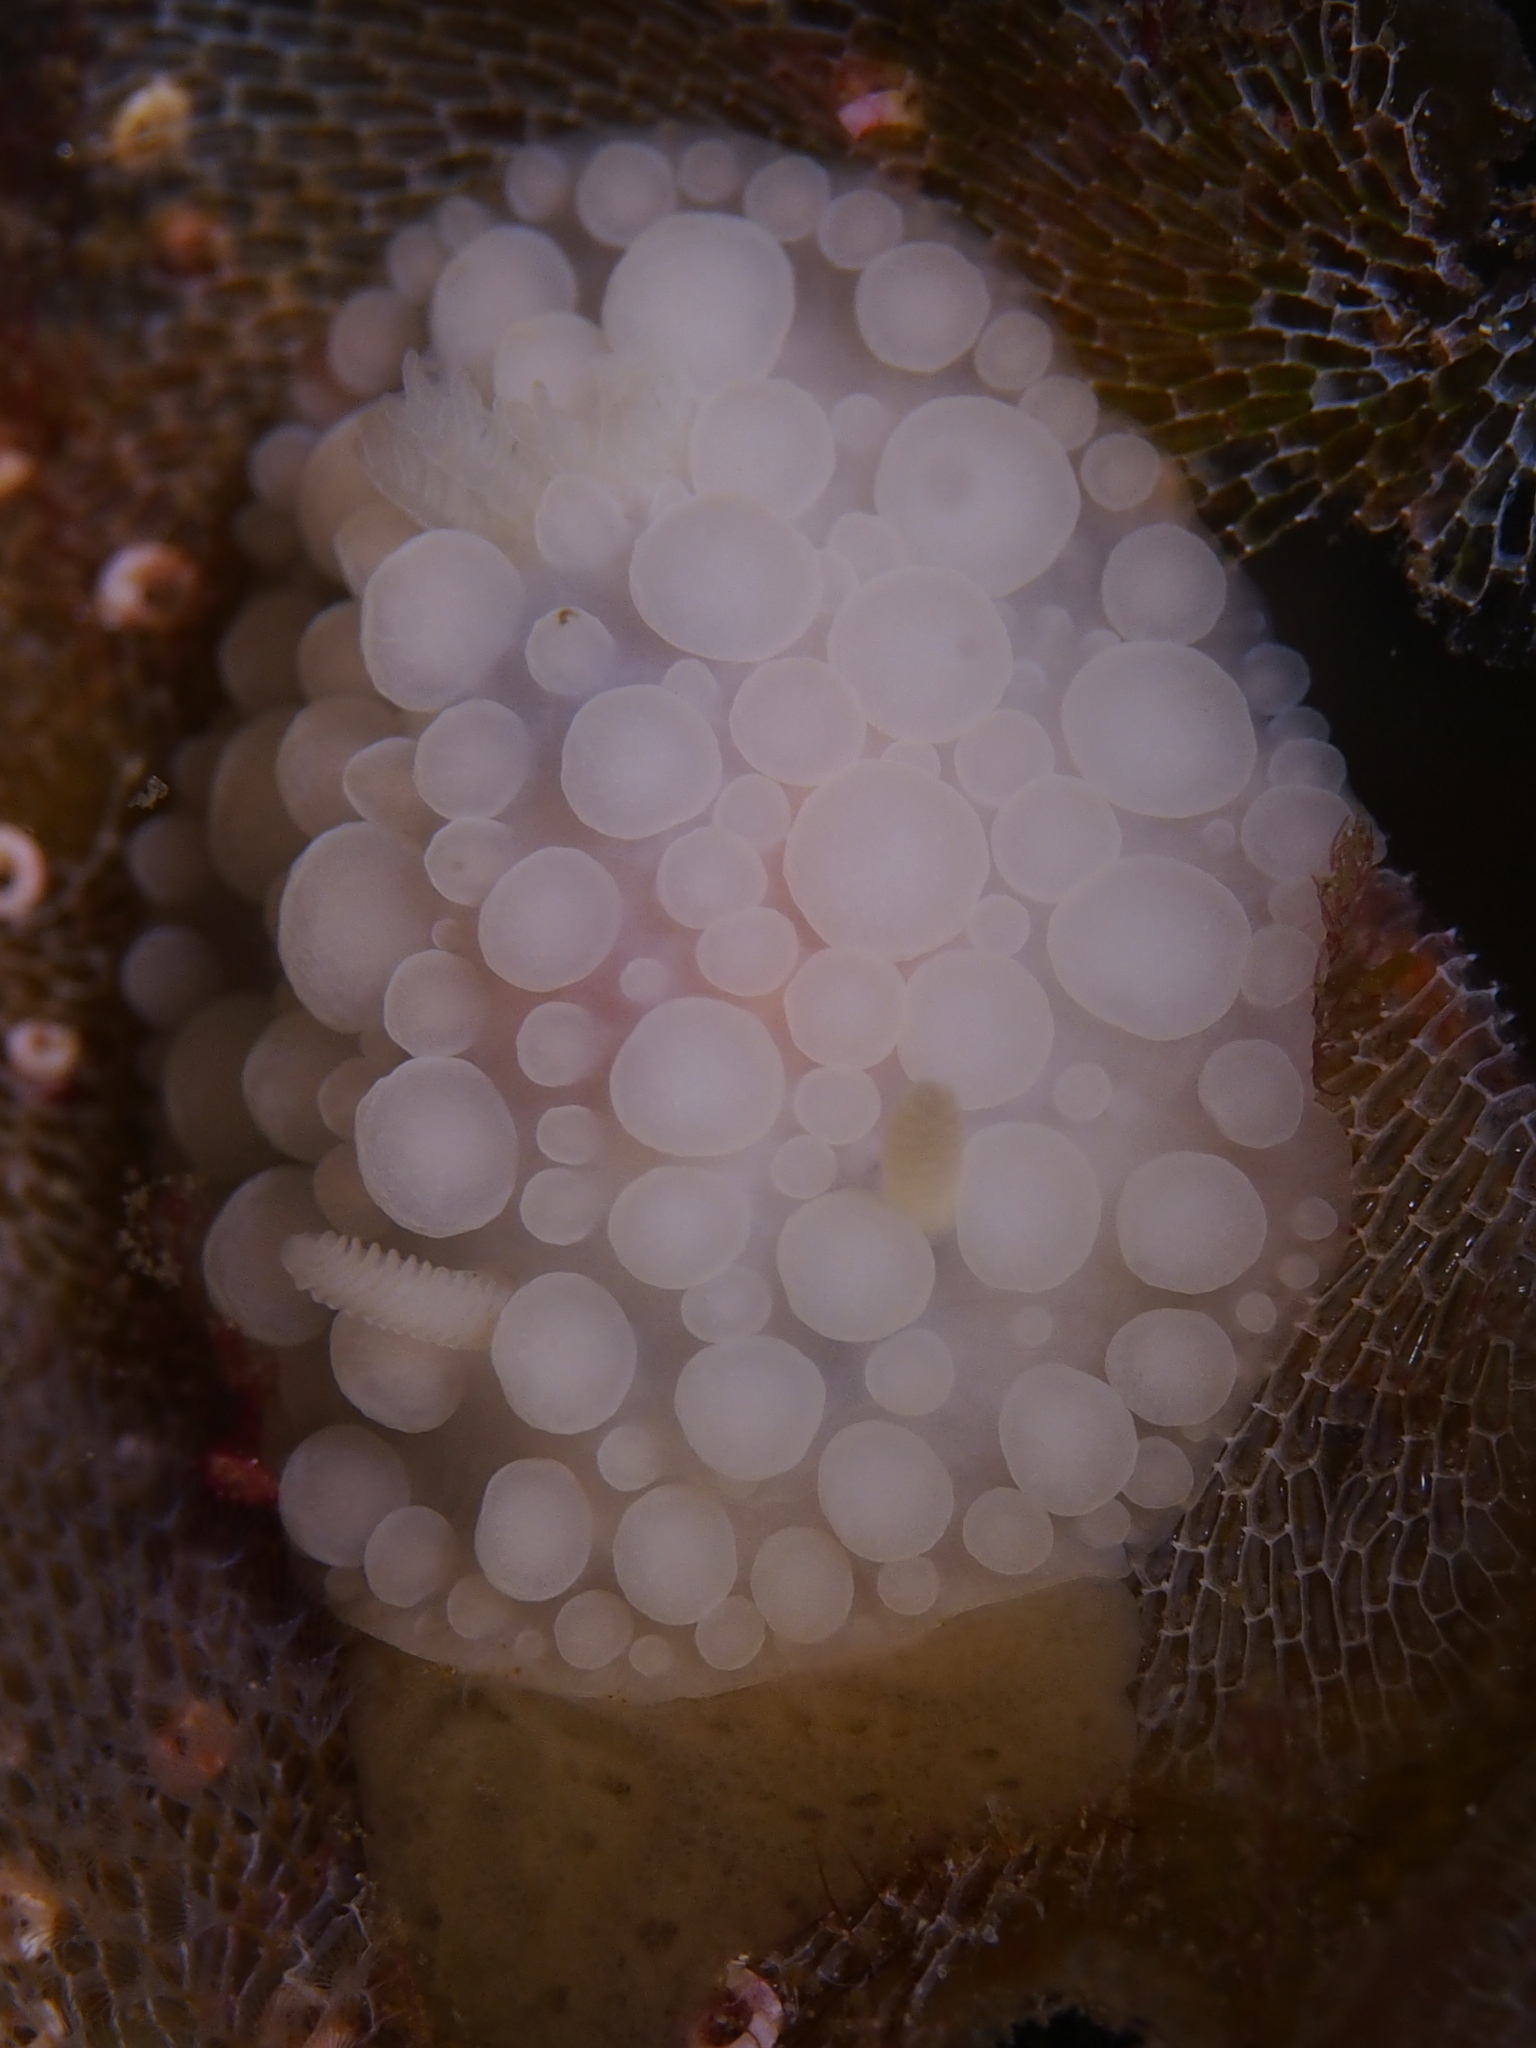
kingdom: Animalia
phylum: Mollusca
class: Gastropoda
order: Nudibranchia
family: Onchidorididae
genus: Adalaria
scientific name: Adalaria loveni
